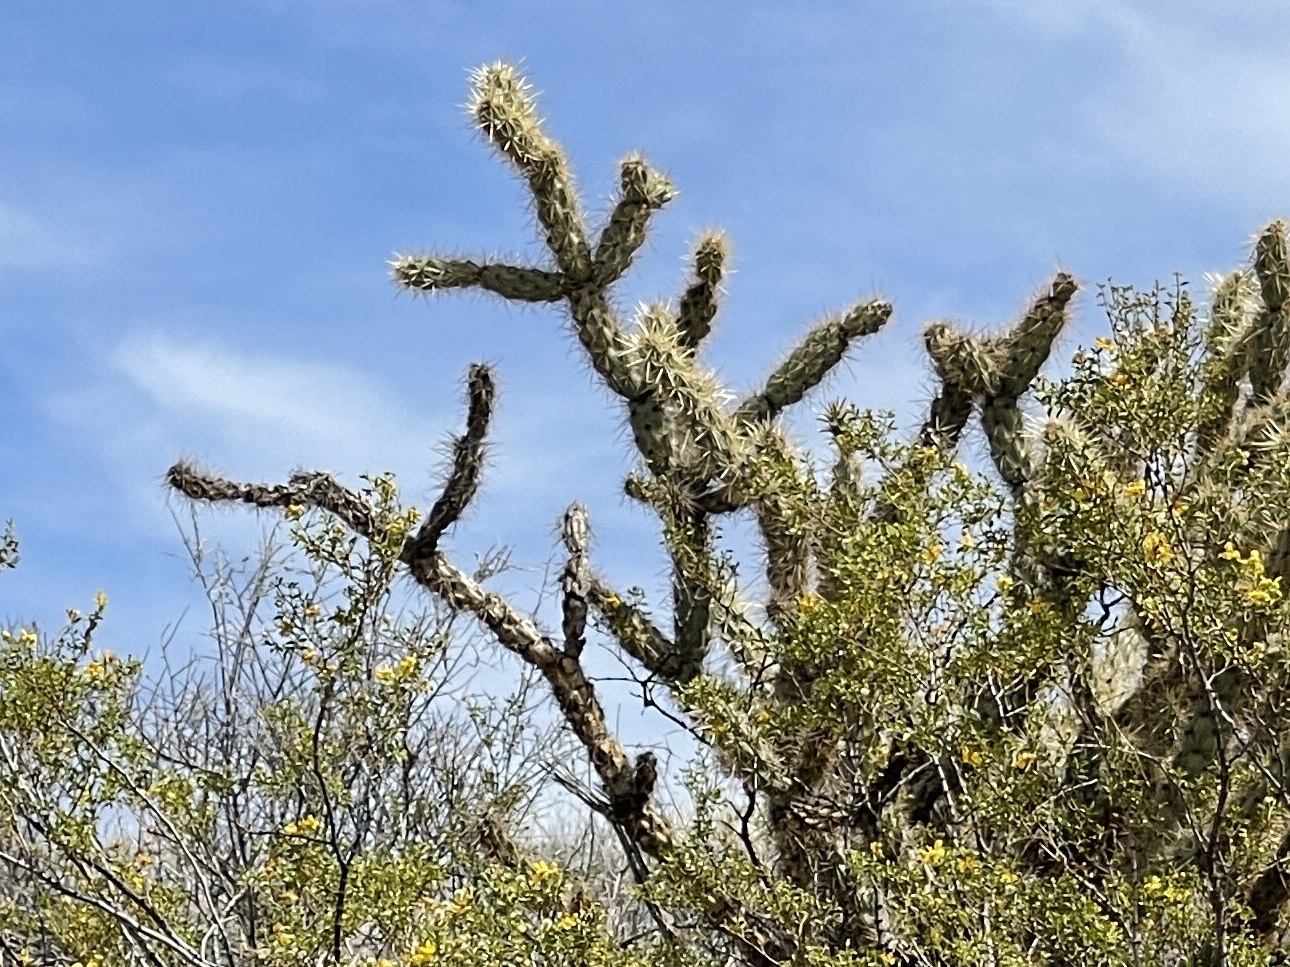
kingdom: Plantae
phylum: Tracheophyta
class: Magnoliopsida
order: Caryophyllales
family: Cactaceae
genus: Cylindropuntia
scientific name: Cylindropuntia acanthocarpa
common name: Buckhorn cholla
